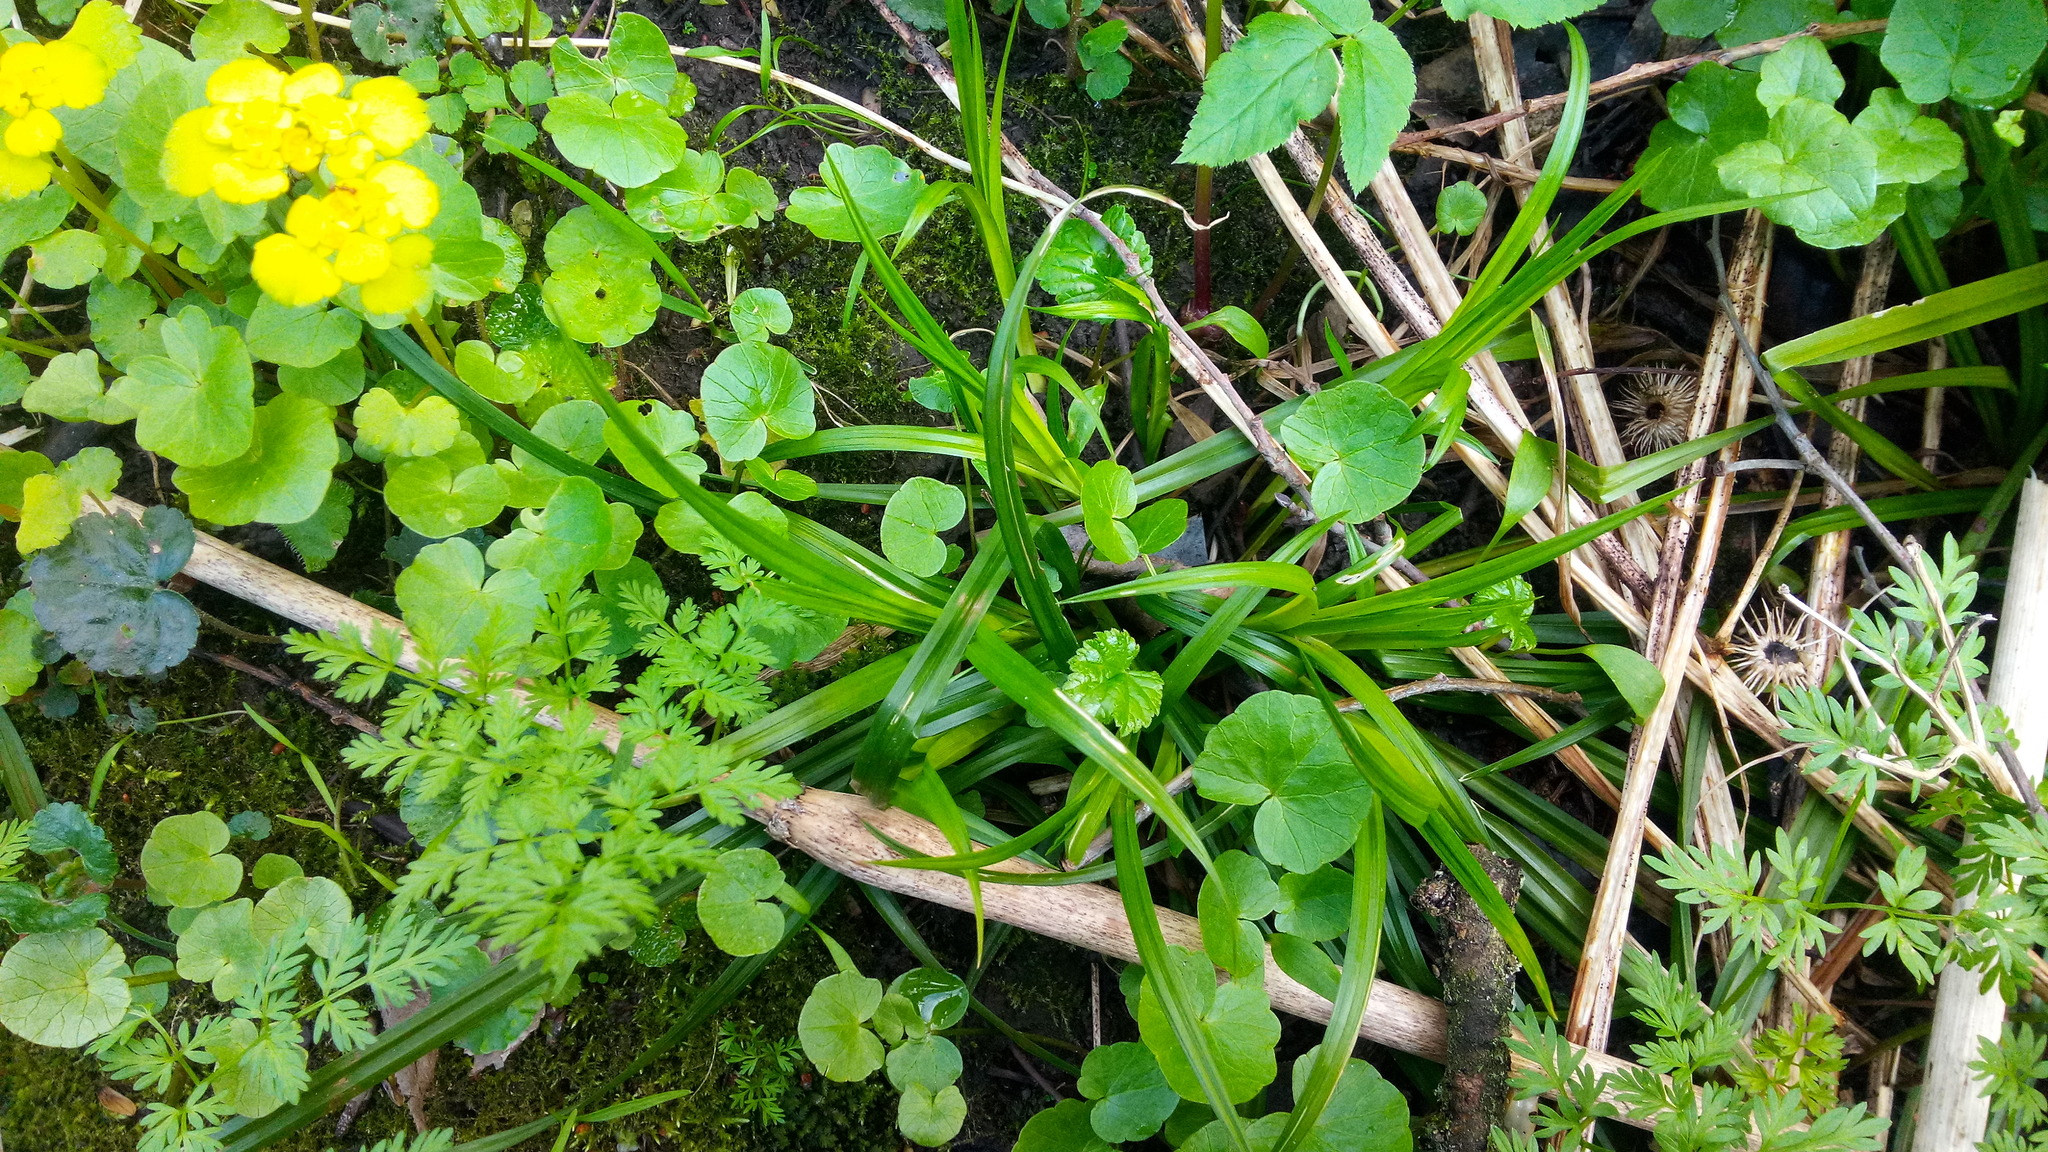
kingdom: Plantae
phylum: Tracheophyta
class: Liliopsida
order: Poales
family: Cyperaceae
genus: Carex
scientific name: Carex sylvatica
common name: Wood-sedge
